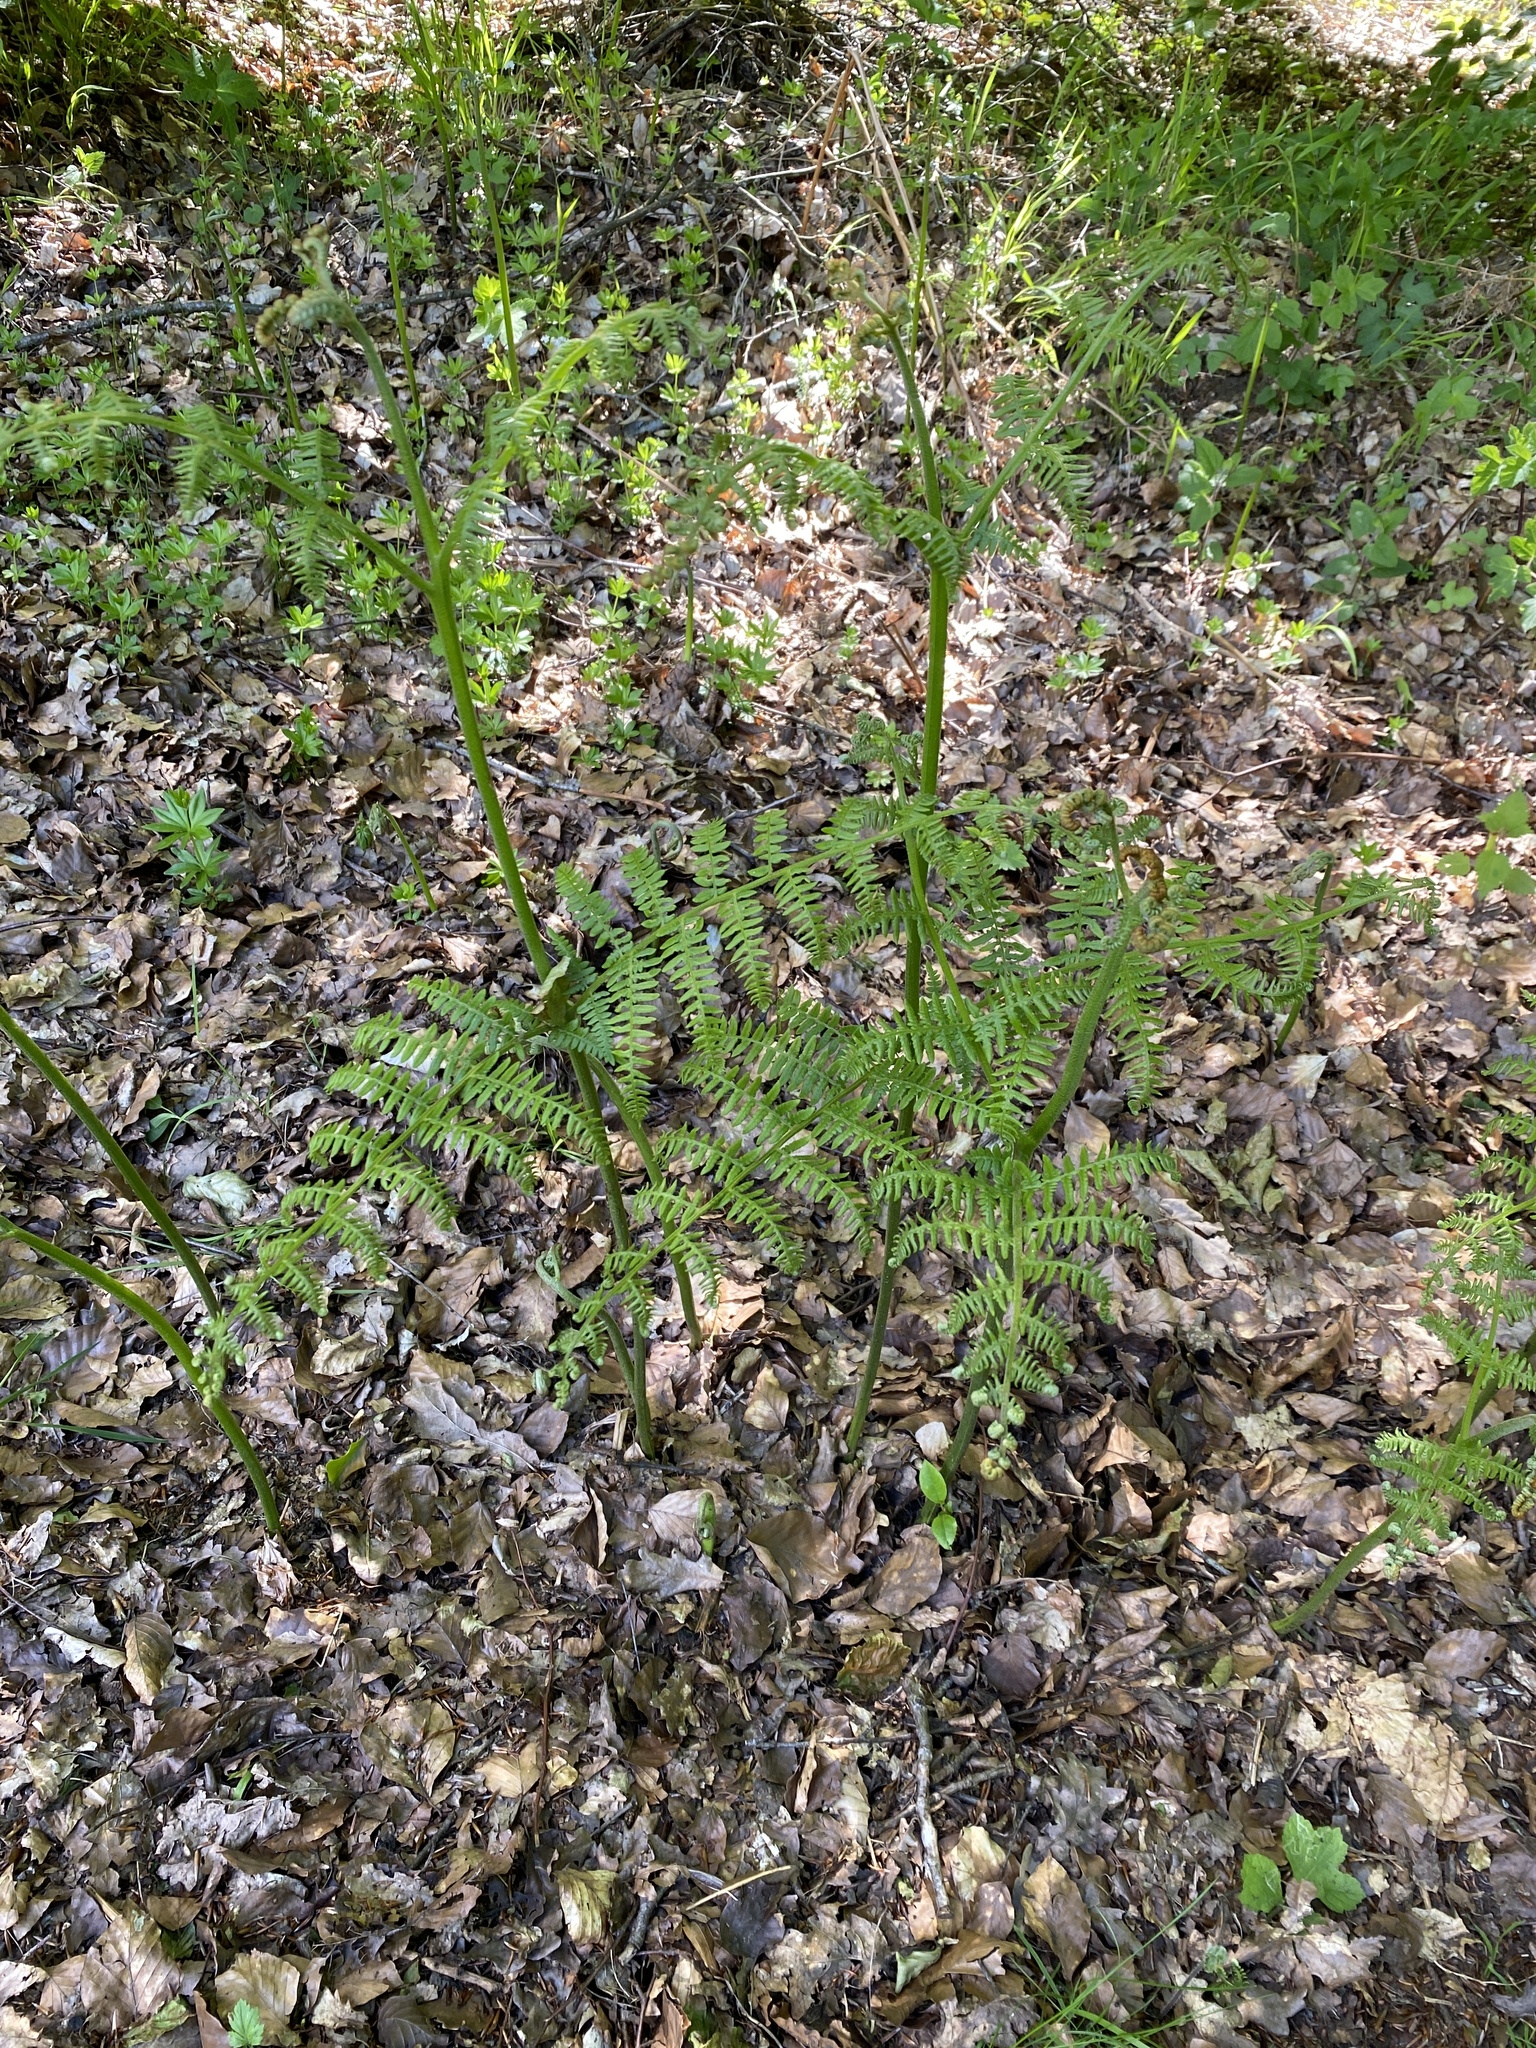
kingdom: Plantae
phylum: Tracheophyta
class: Polypodiopsida
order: Polypodiales
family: Dennstaedtiaceae
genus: Pteridium
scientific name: Pteridium aquilinum
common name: Bracken
